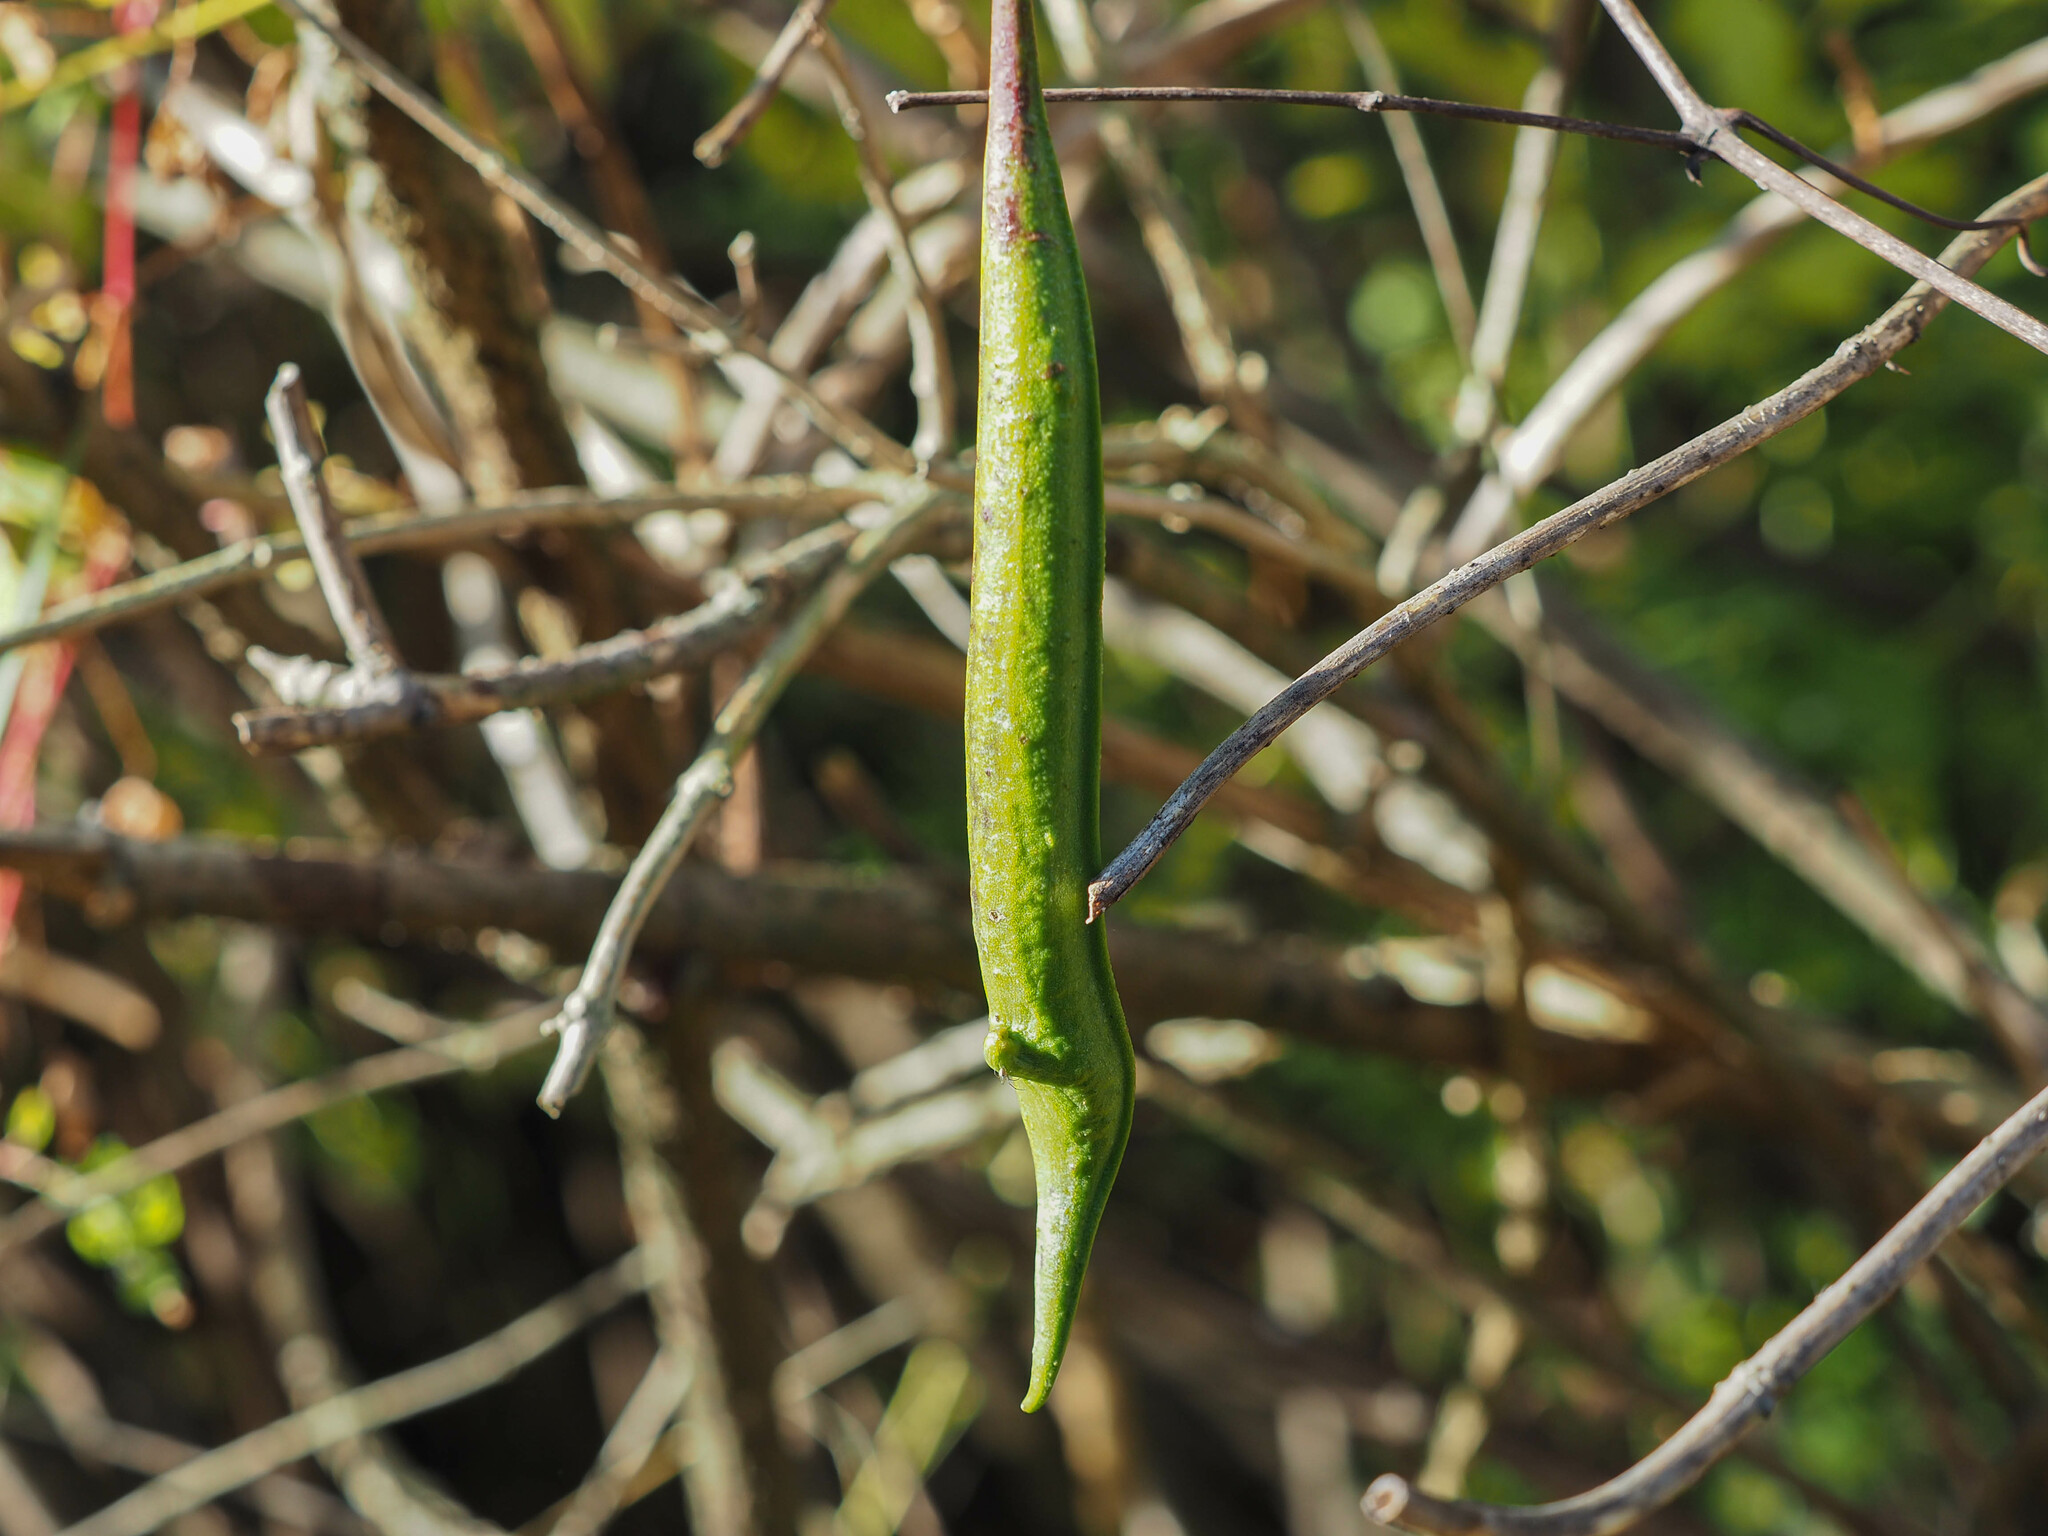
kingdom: Plantae
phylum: Tracheophyta
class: Magnoliopsida
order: Lamiales
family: Bignoniaceae
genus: Campsis
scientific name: Campsis radicans
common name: Trumpet-creeper
